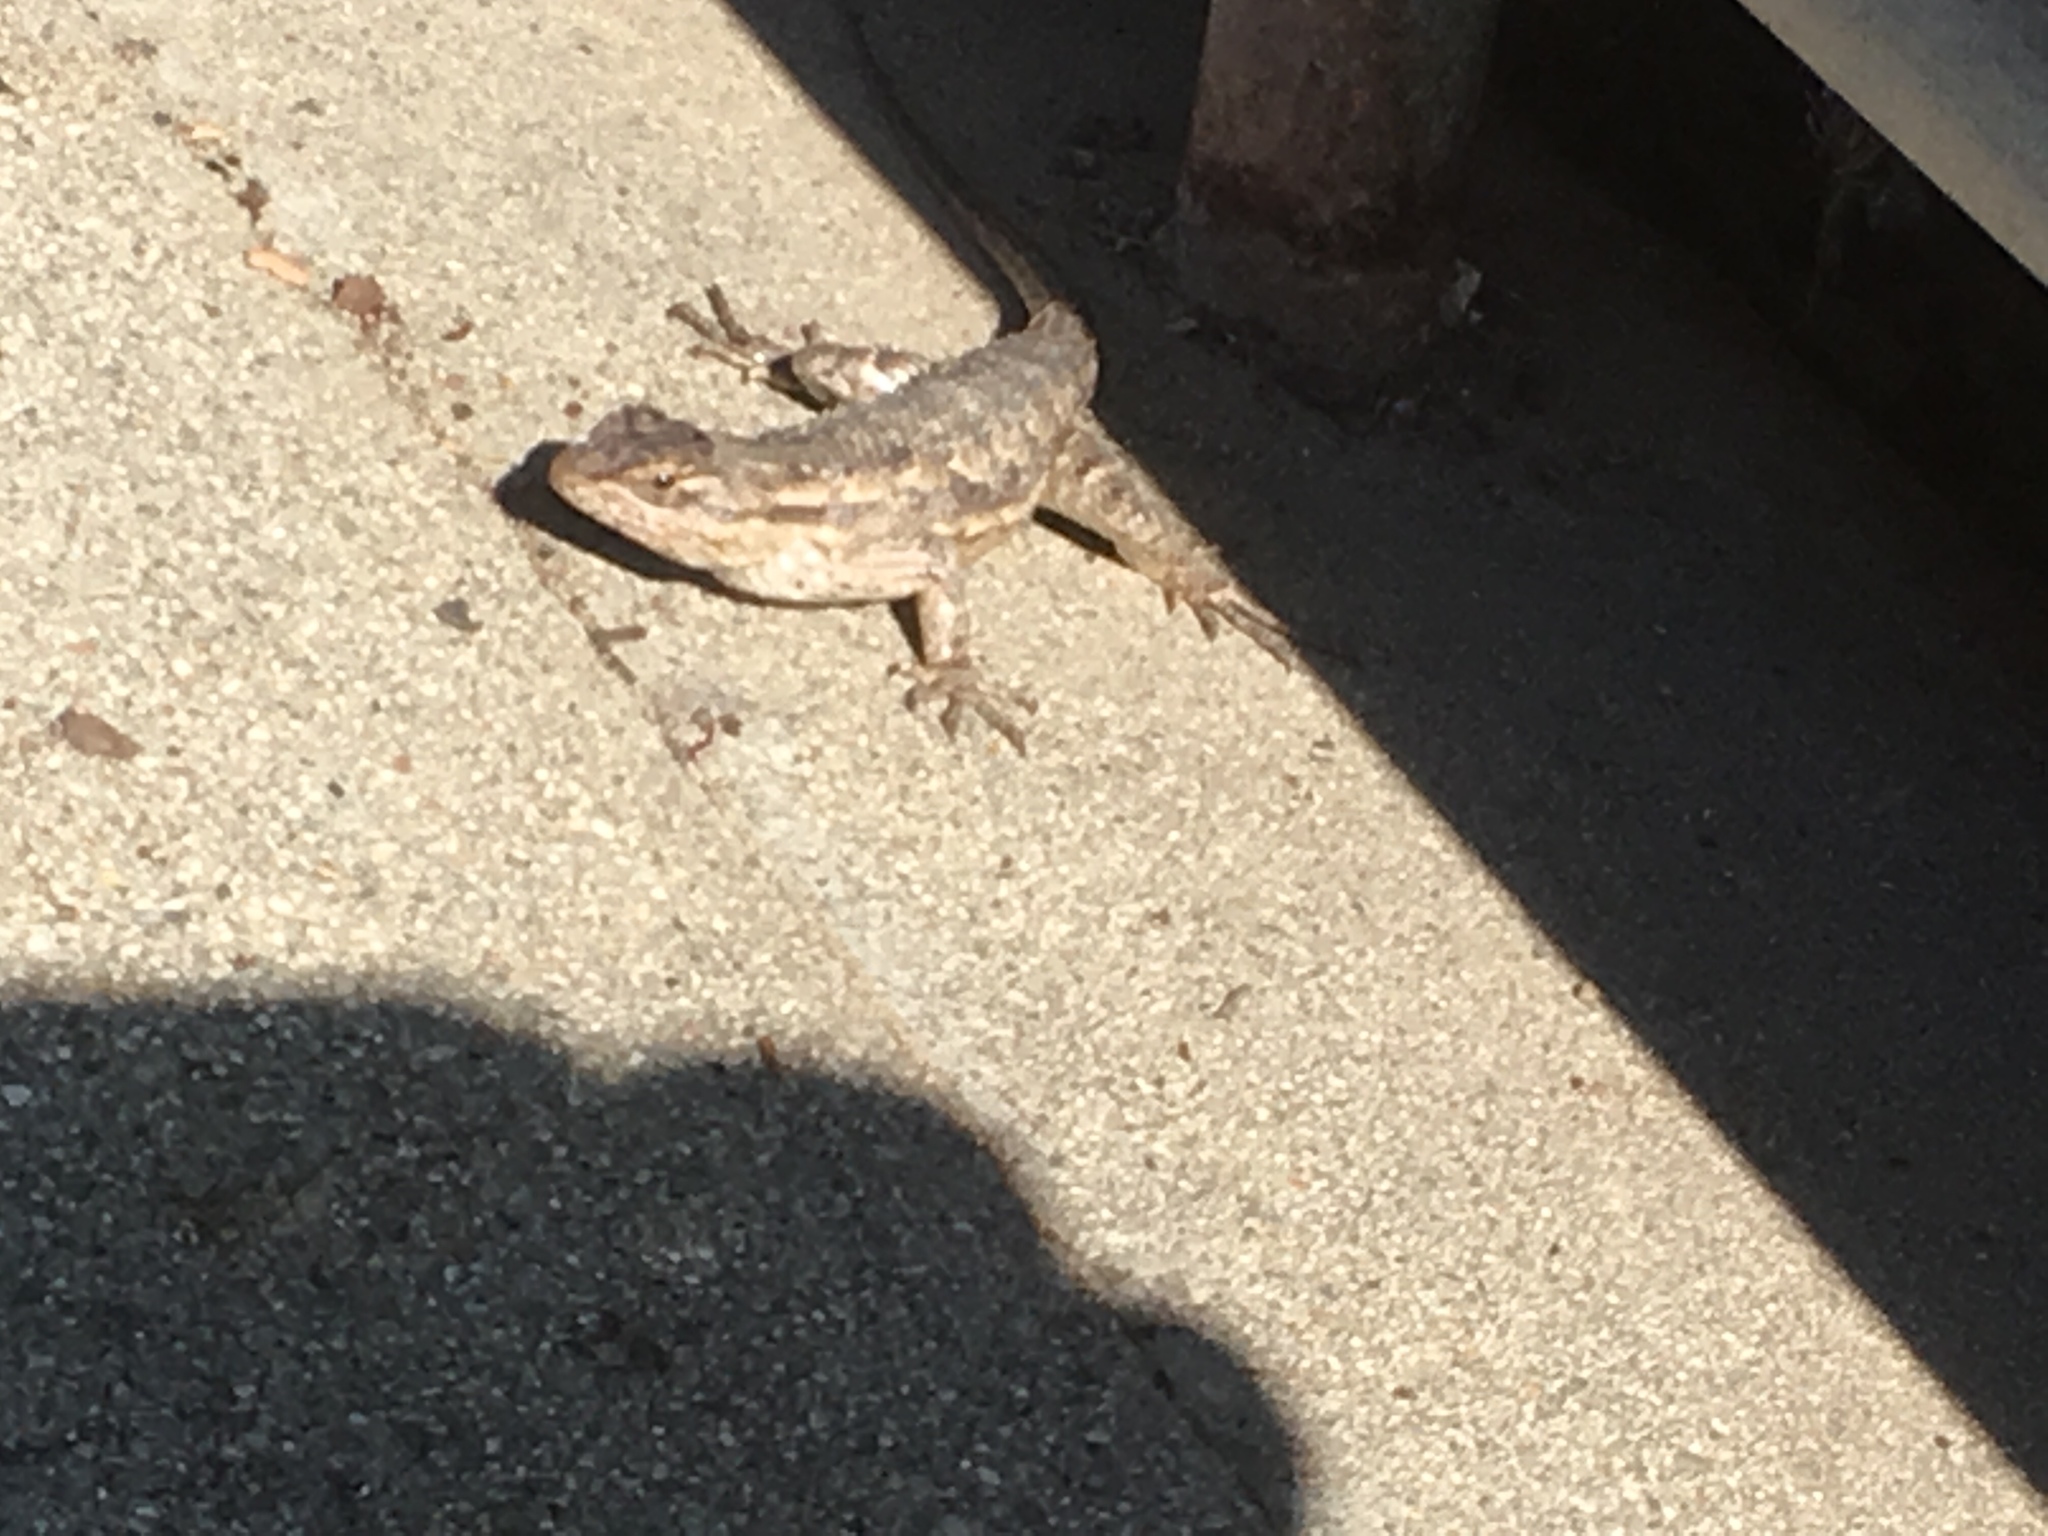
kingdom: Animalia
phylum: Chordata
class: Squamata
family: Phrynosomatidae
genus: Sceloporus
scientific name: Sceloporus occidentalis
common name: Western fence lizard
